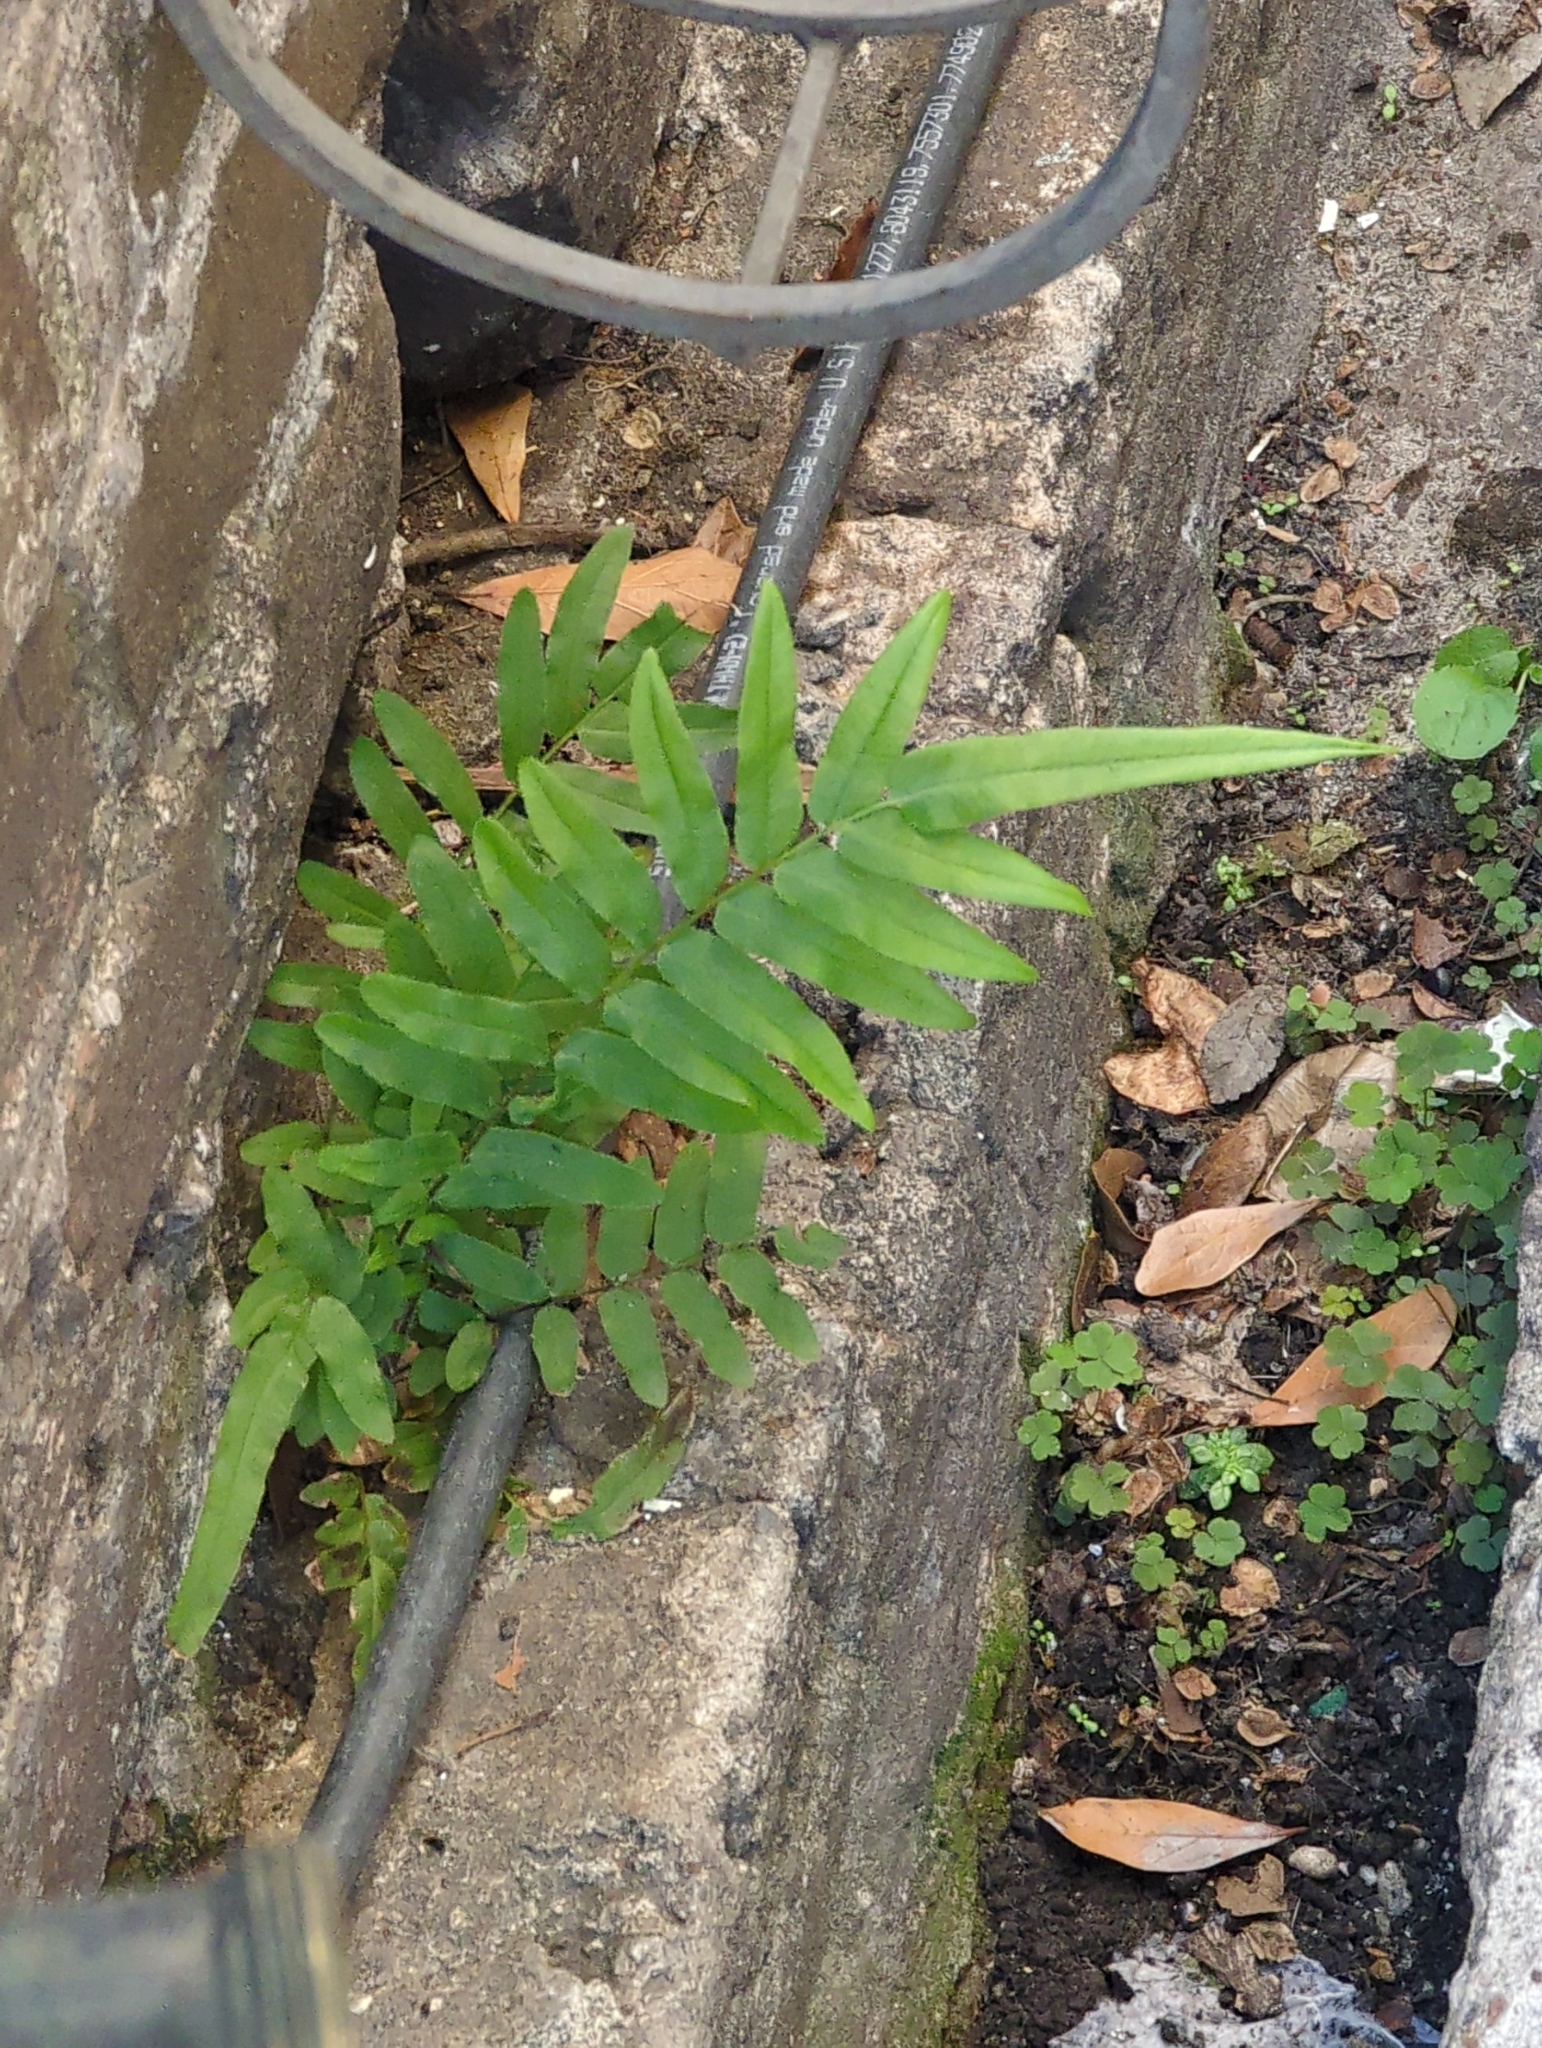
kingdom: Plantae
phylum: Tracheophyta
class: Polypodiopsida
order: Polypodiales
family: Pteridaceae
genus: Pteris
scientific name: Pteris vittata
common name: Ladder brake
